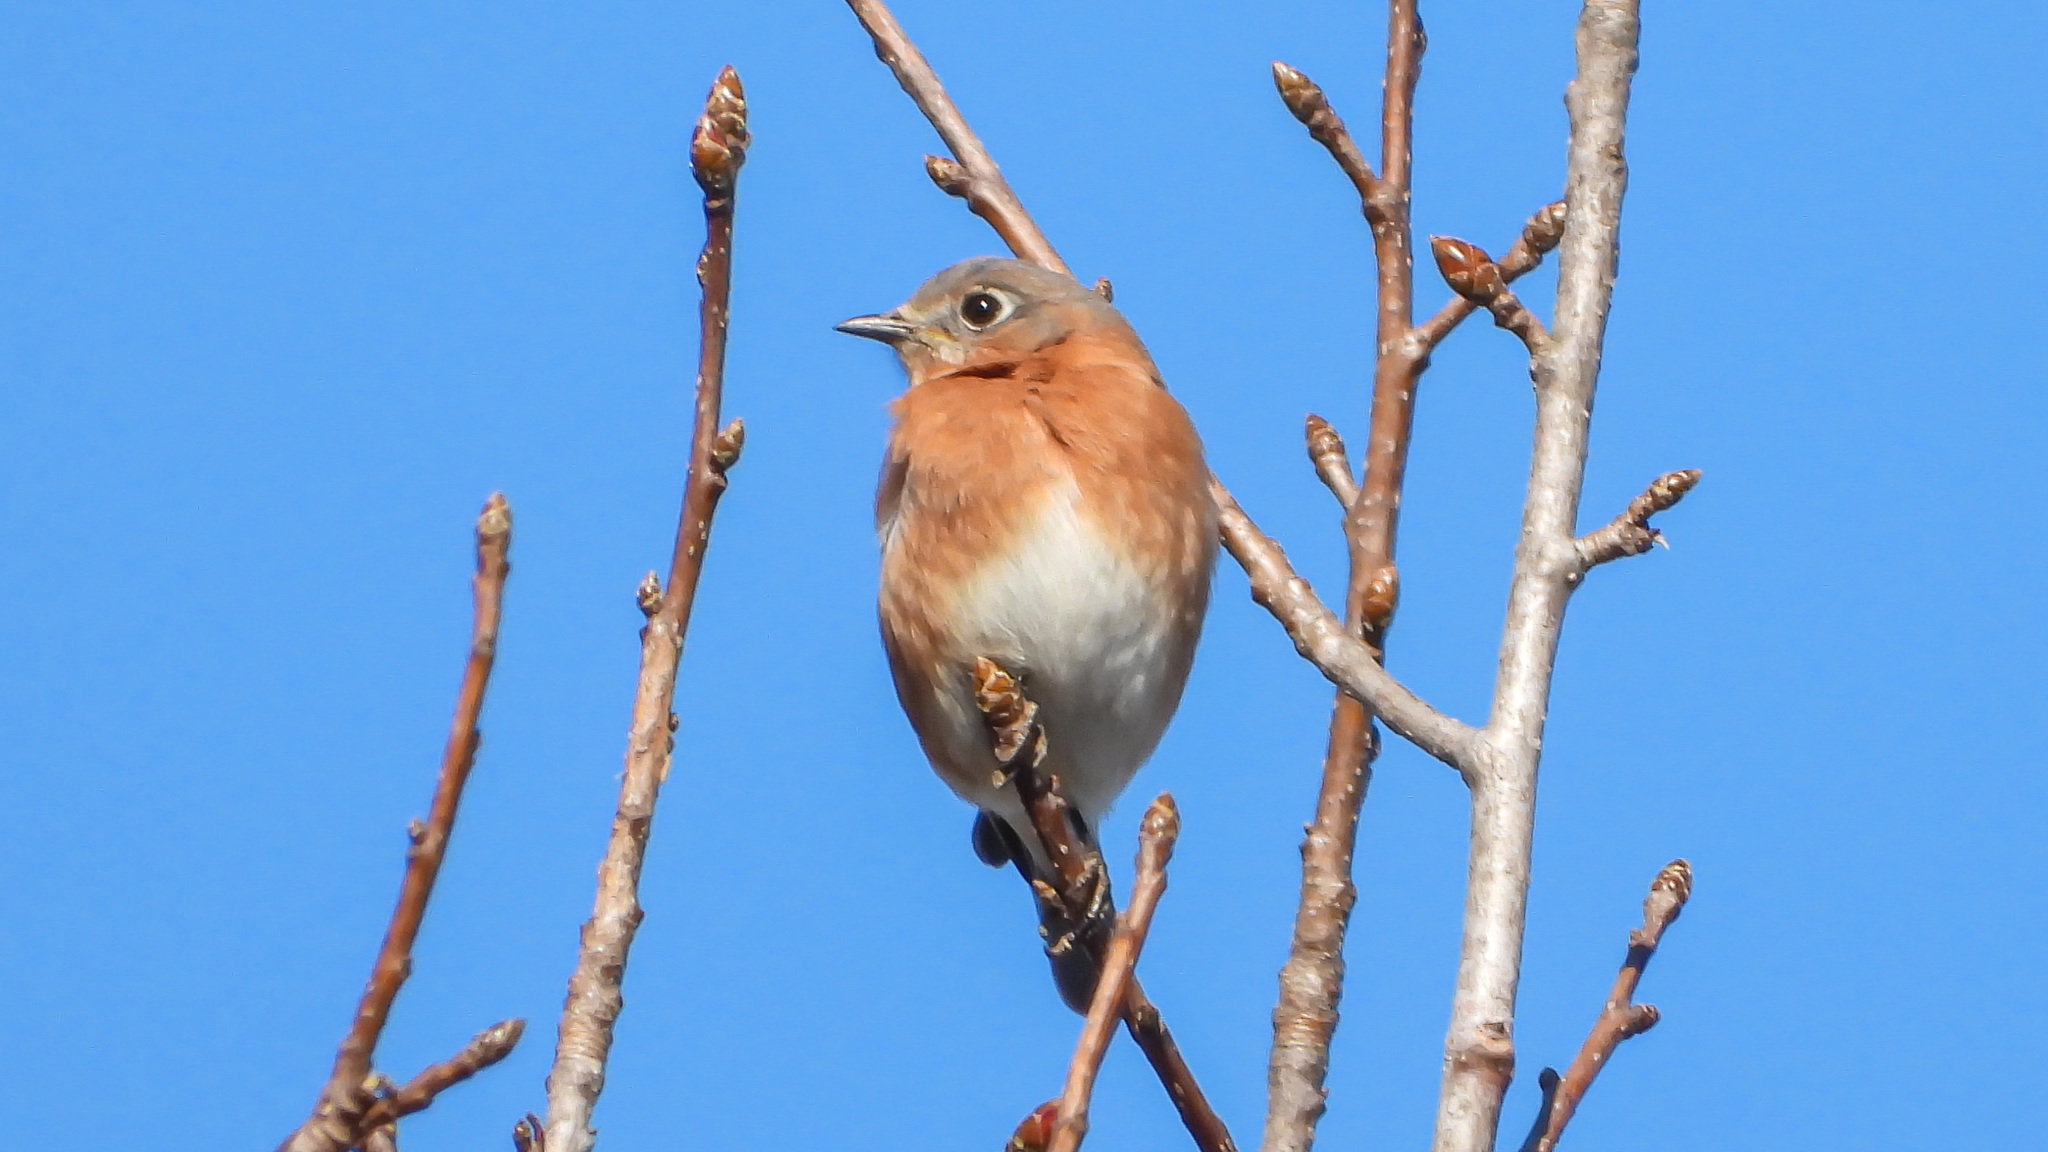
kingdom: Animalia
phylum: Chordata
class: Aves
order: Passeriformes
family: Turdidae
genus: Sialia
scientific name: Sialia sialis
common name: Eastern bluebird
